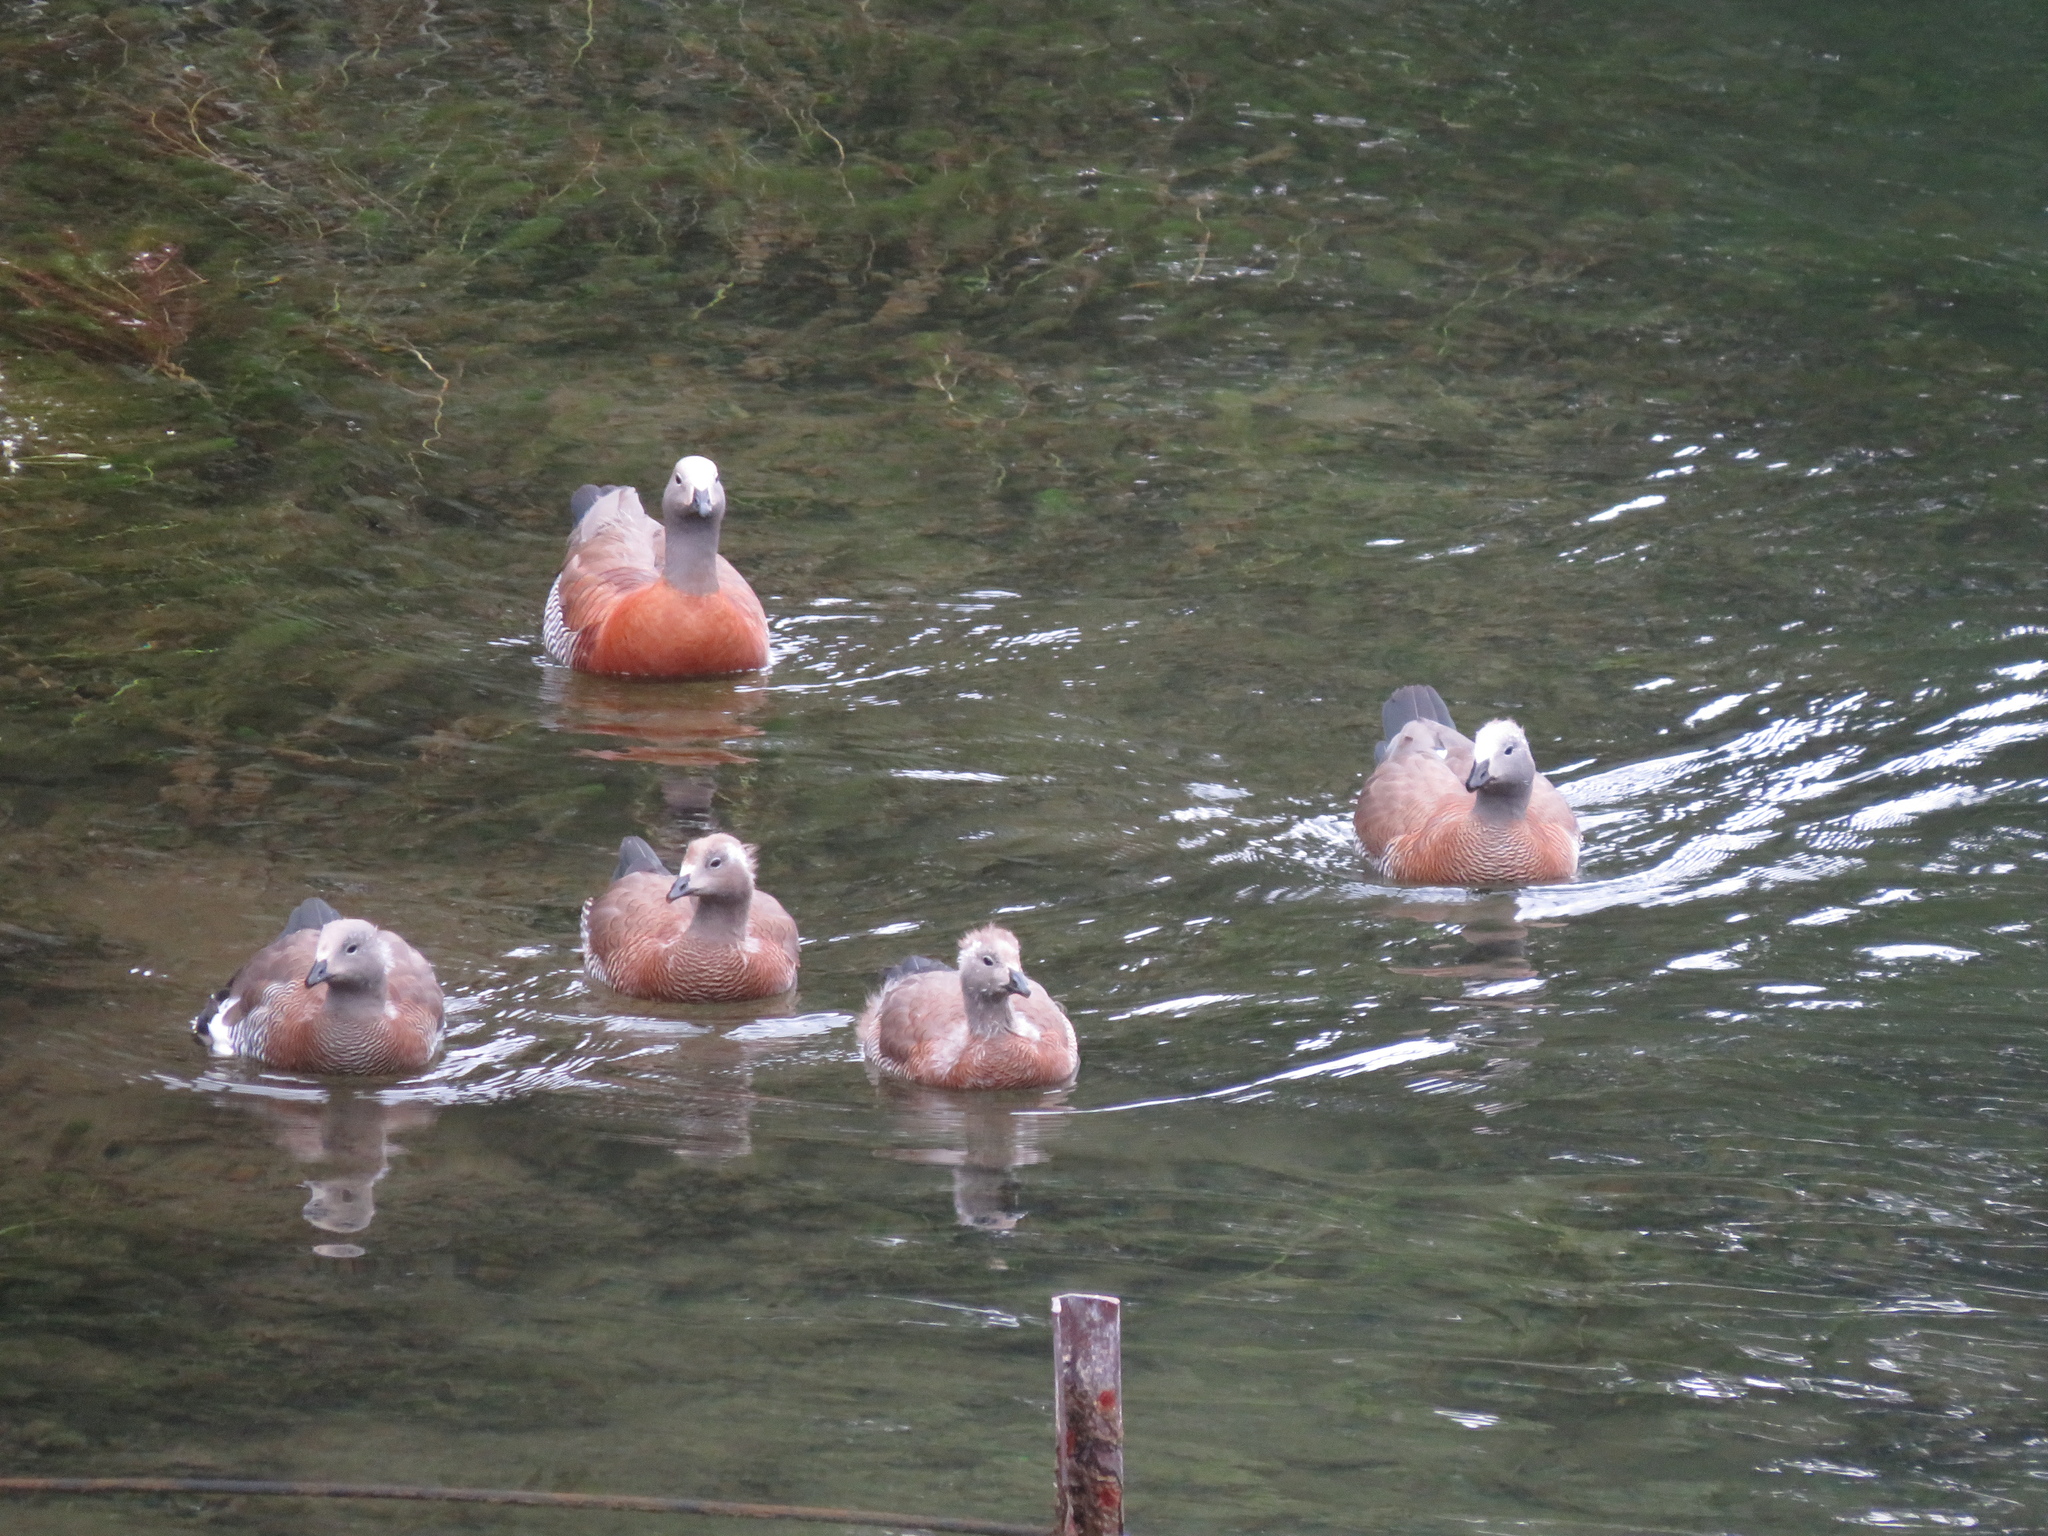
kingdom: Animalia
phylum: Chordata
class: Aves
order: Anseriformes
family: Anatidae
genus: Chloephaga
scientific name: Chloephaga poliocephala
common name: Ashy-headed goose
